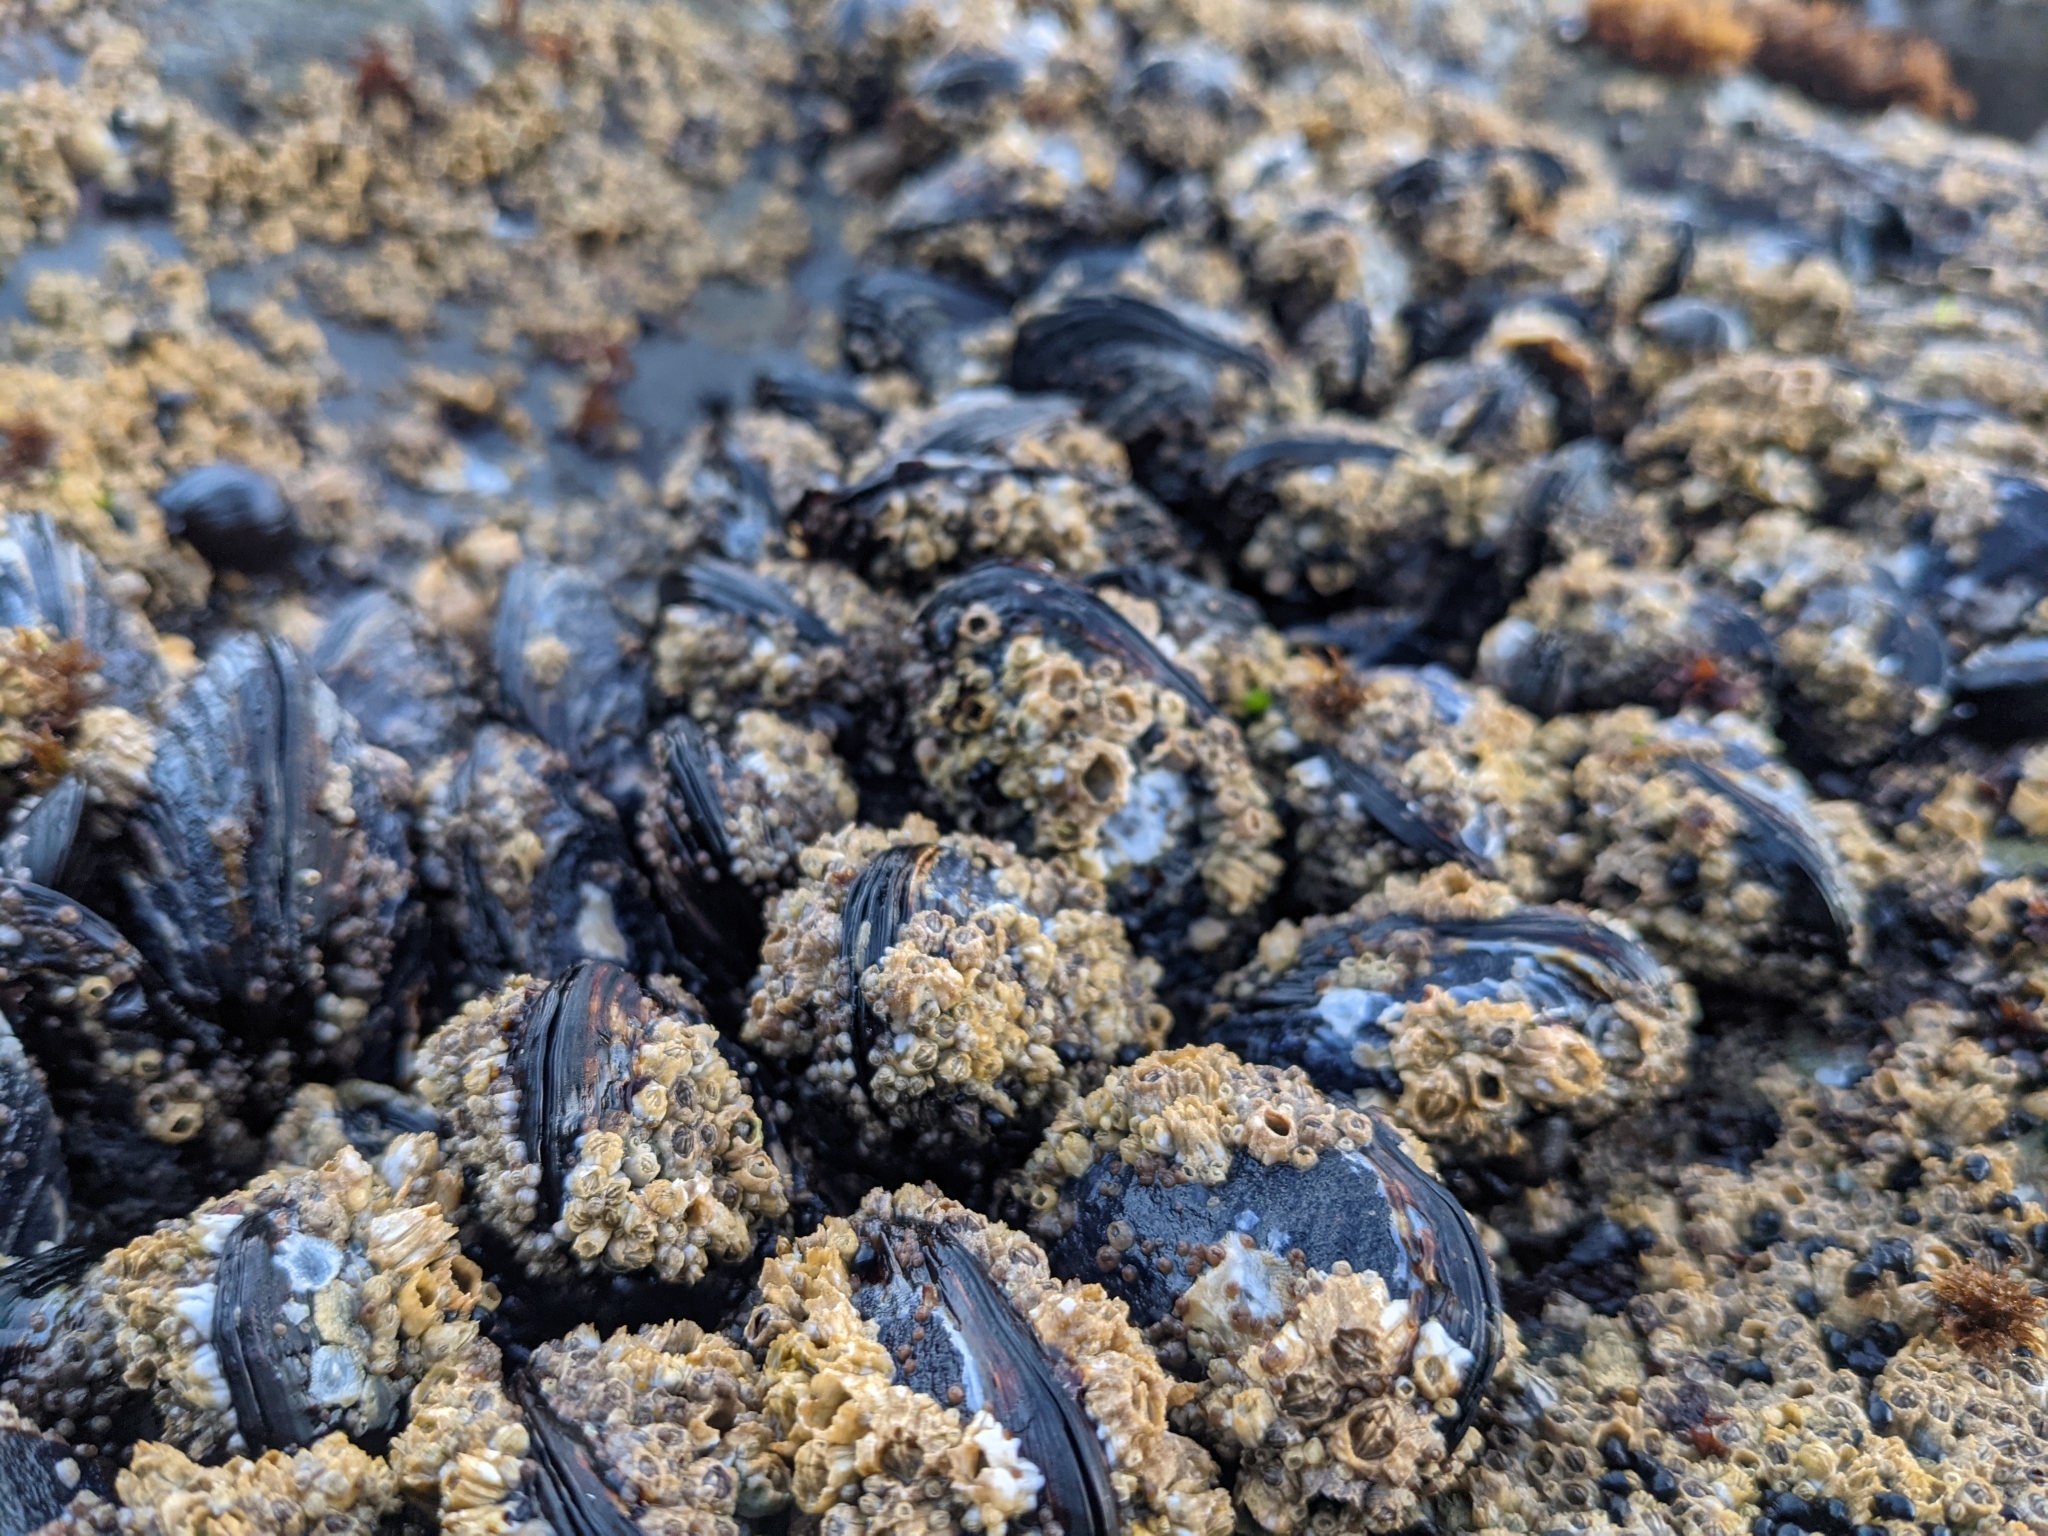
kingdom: Animalia
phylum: Mollusca
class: Bivalvia
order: Mytilida
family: Mytilidae
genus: Mytilus
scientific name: Mytilus californianus
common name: California mussel
